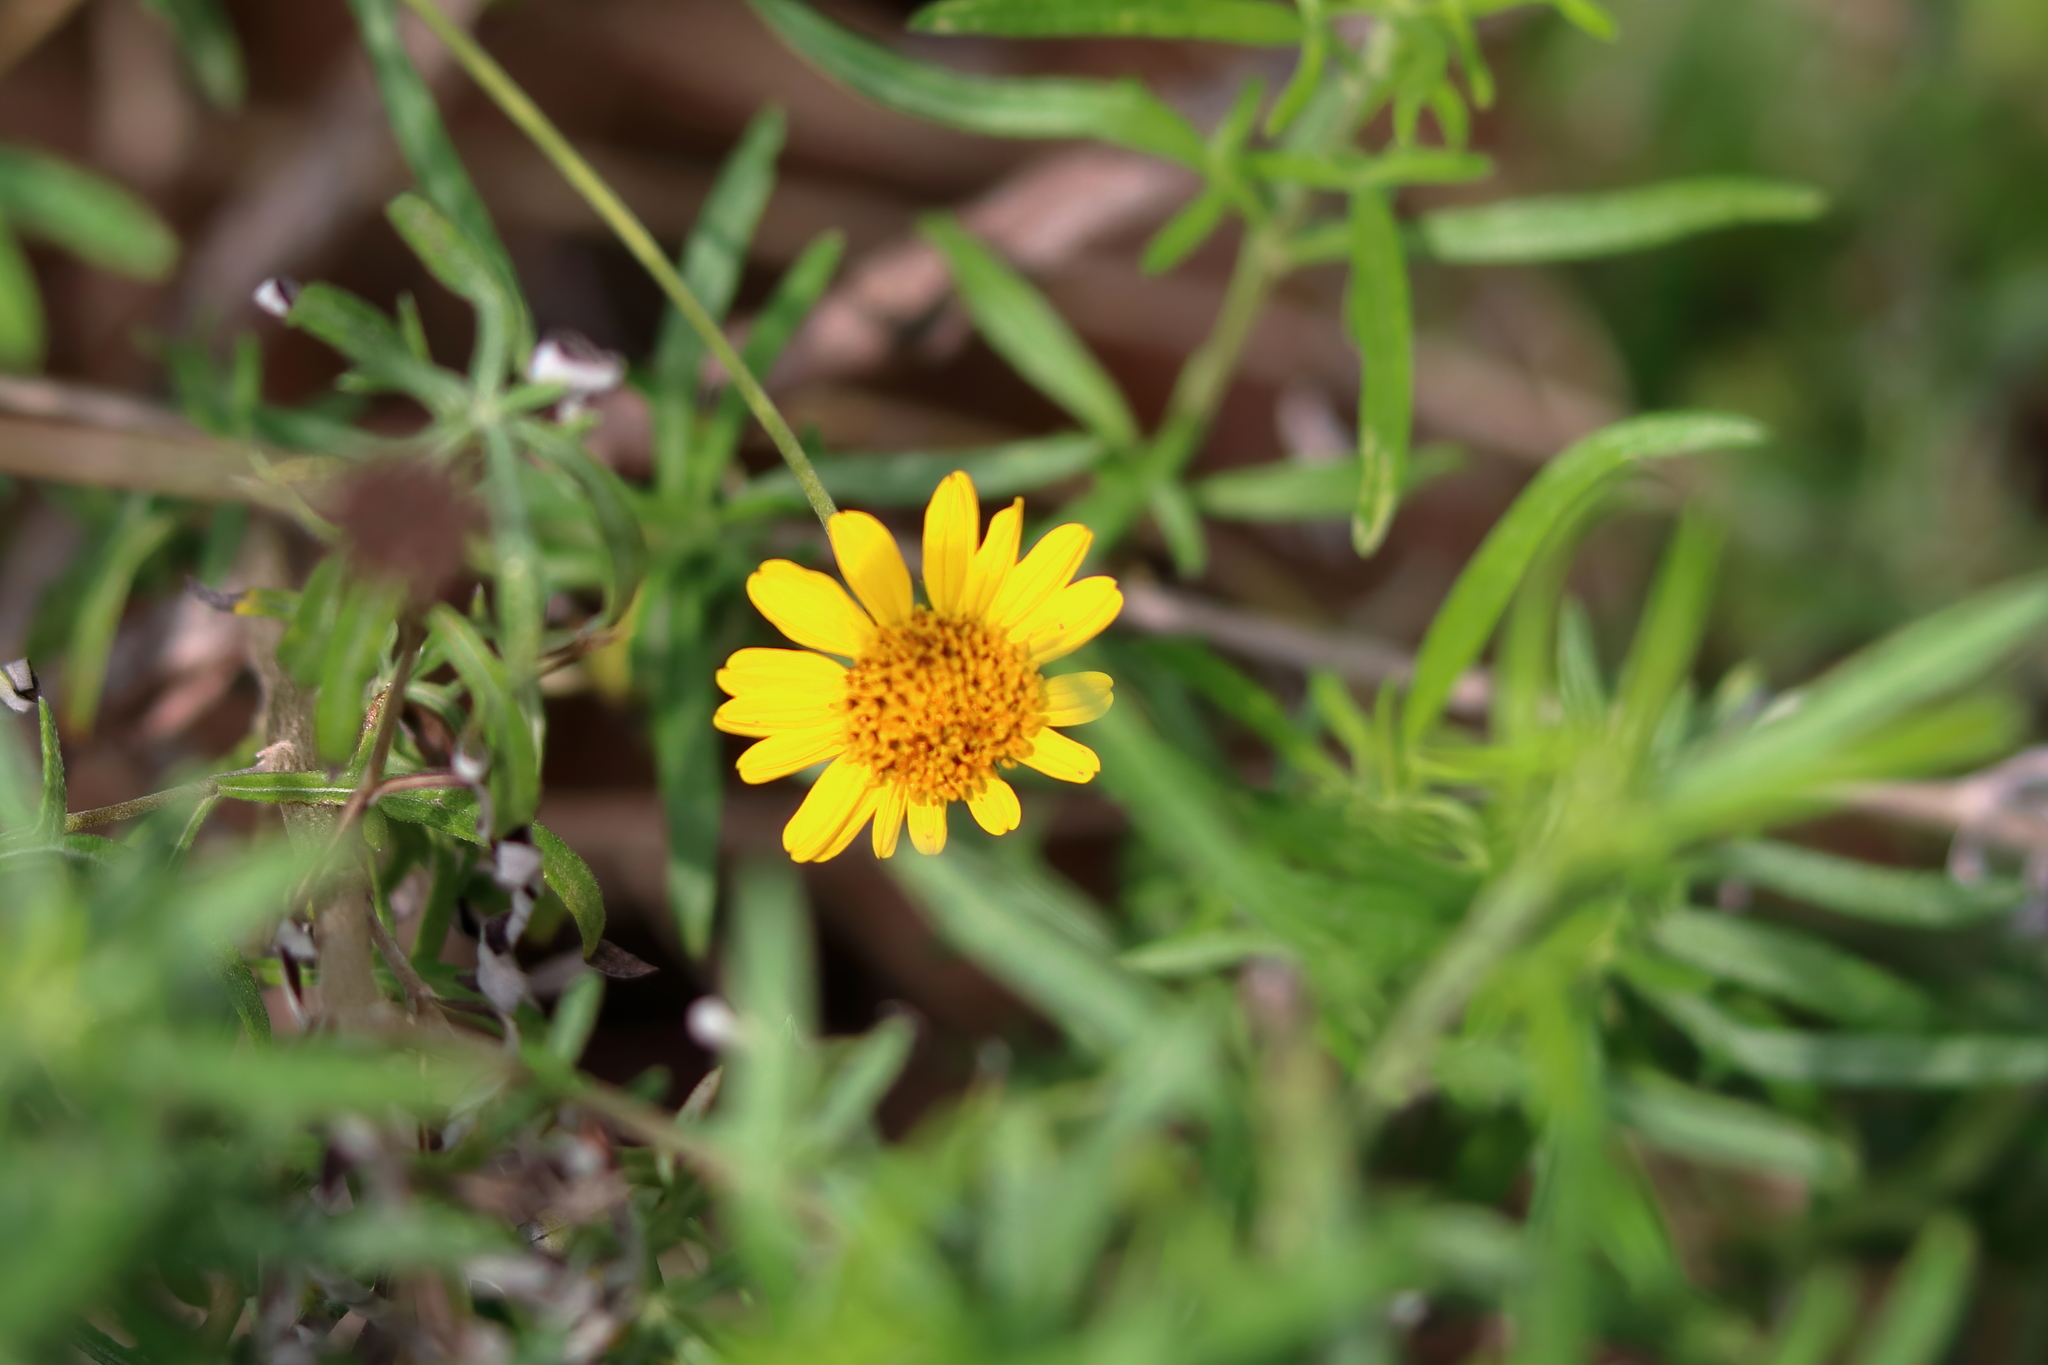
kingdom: Plantae
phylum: Tracheophyta
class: Magnoliopsida
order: Asterales
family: Asteraceae
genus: Sidneya
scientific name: Sidneya tenuifolia
